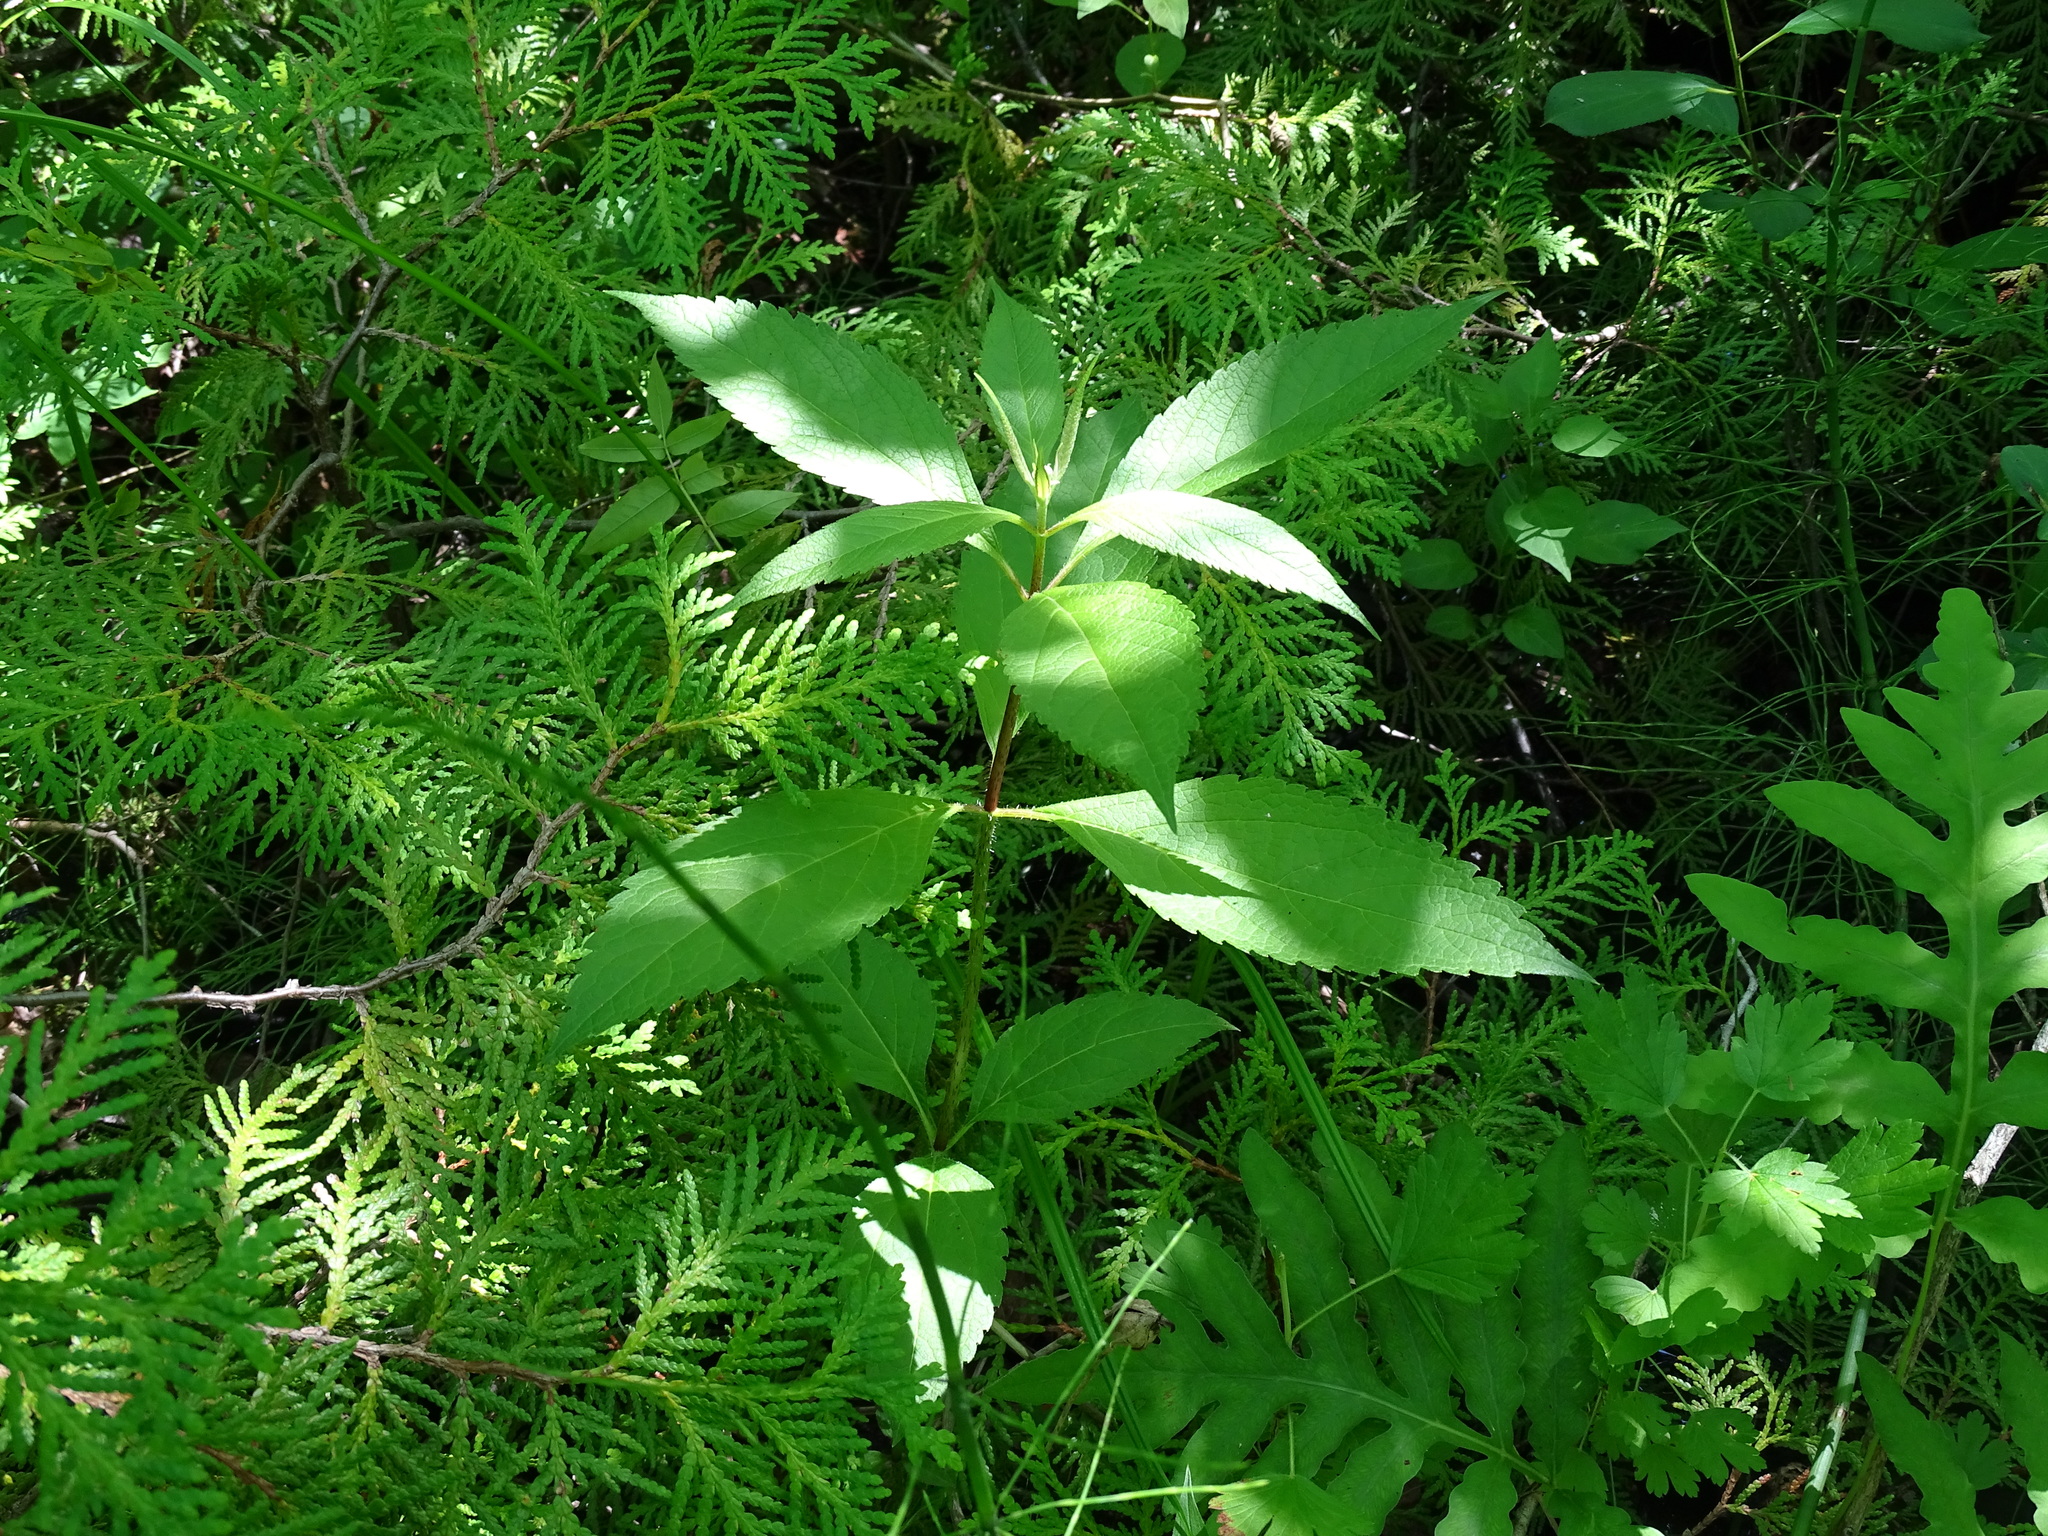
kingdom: Plantae
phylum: Tracheophyta
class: Magnoliopsida
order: Asterales
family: Asteraceae
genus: Eutrochium
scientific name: Eutrochium maculatum
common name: Spotted joe pye weed
